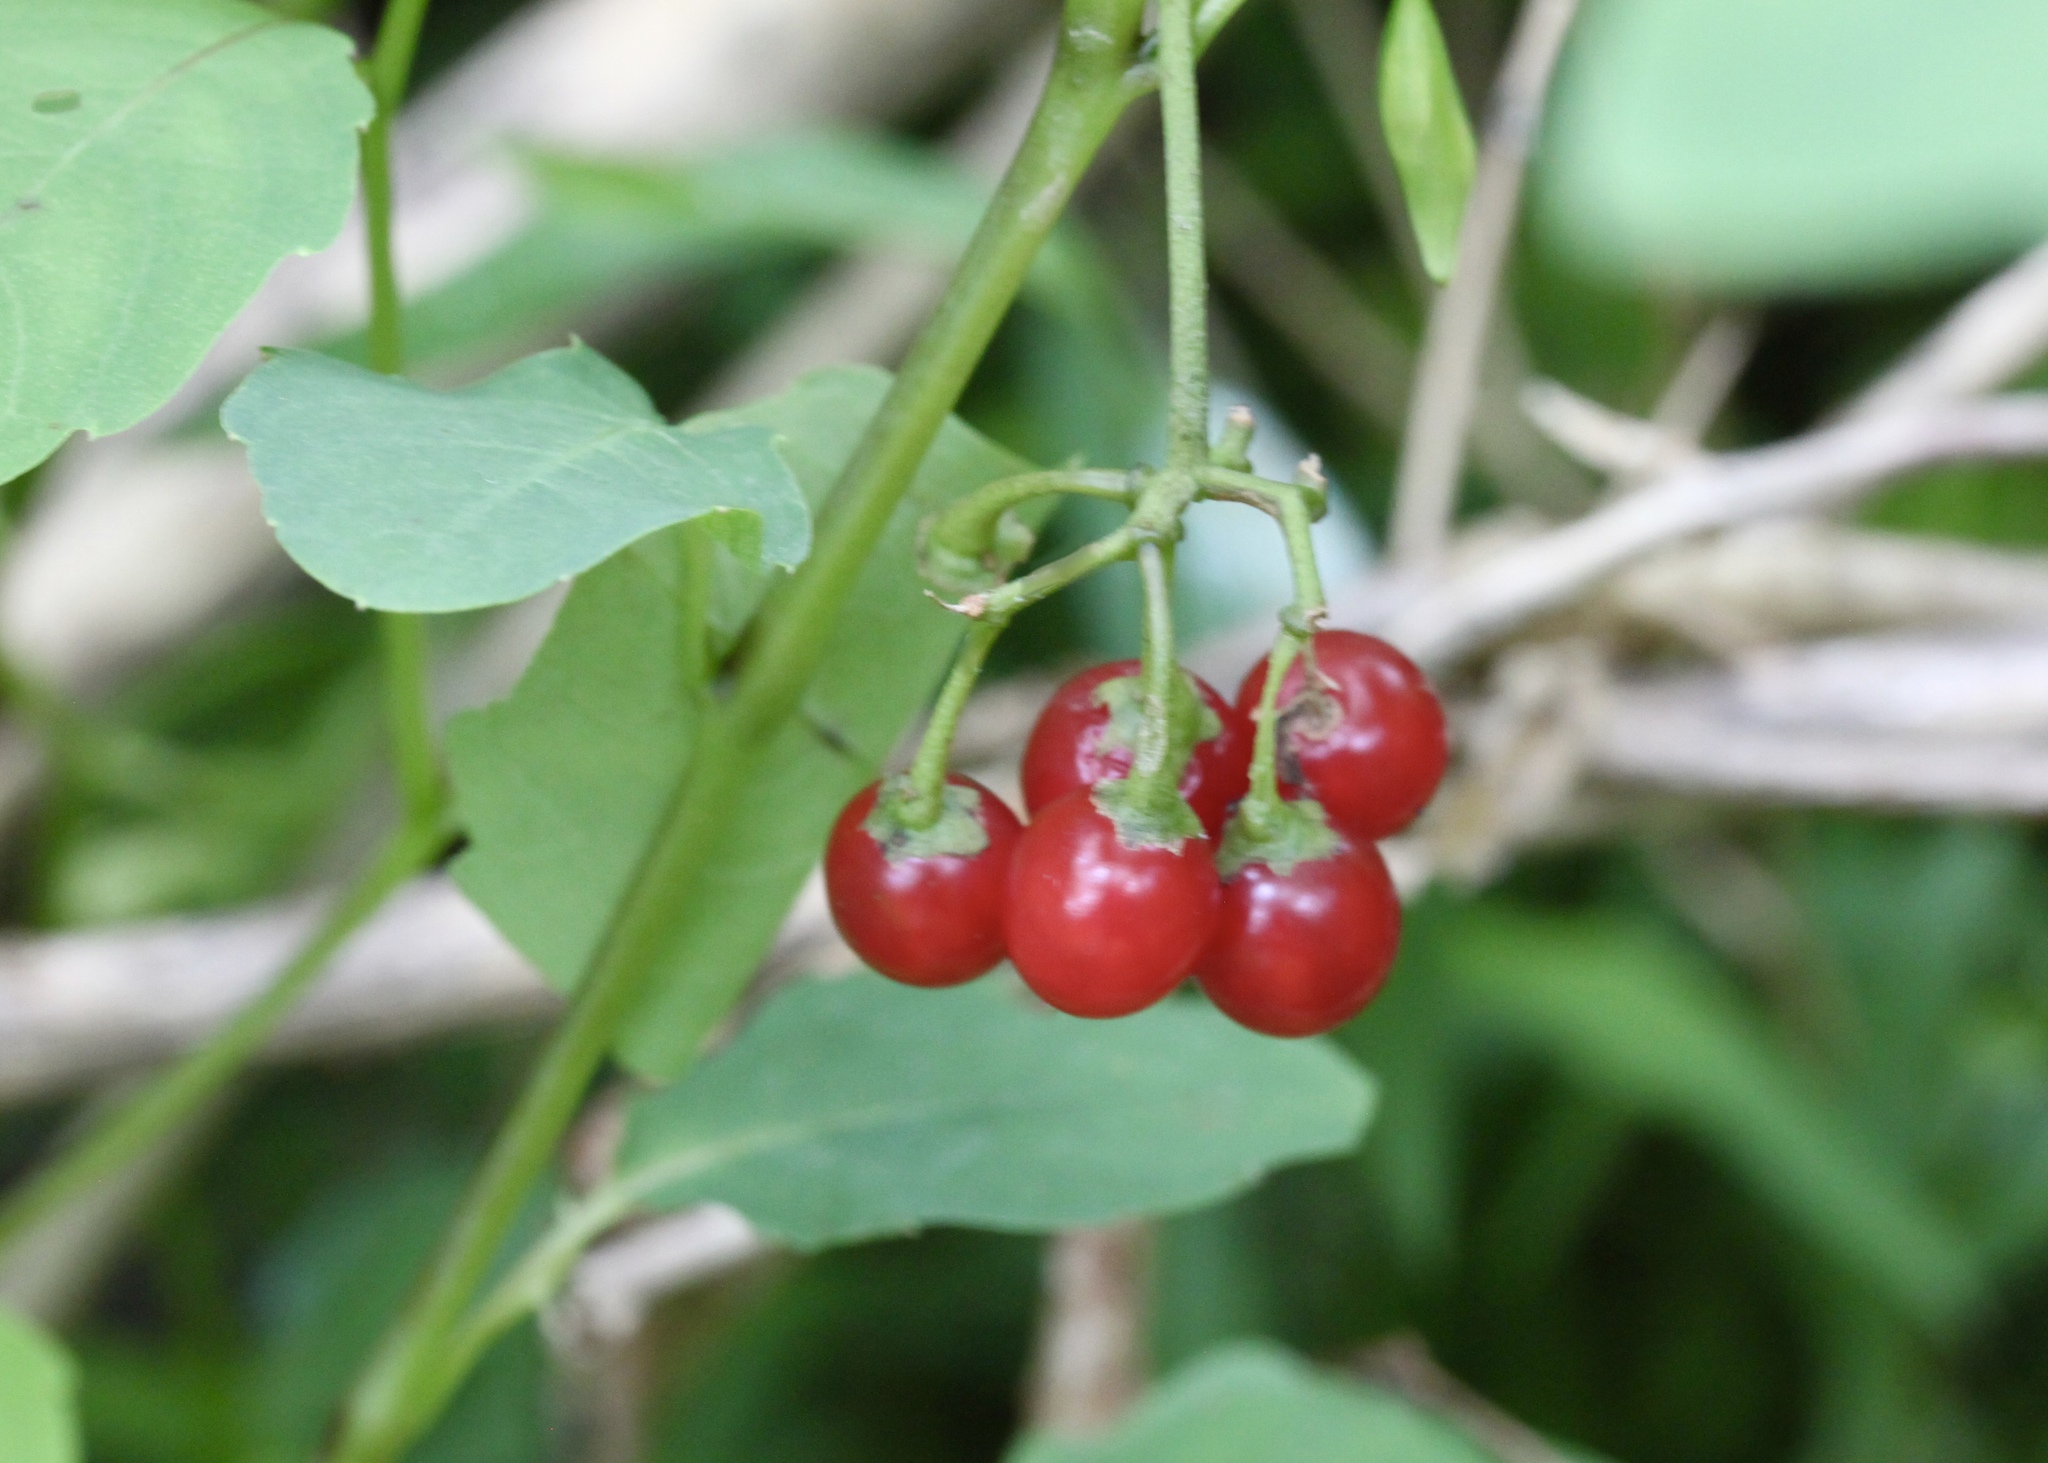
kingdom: Plantae
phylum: Tracheophyta
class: Magnoliopsida
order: Solanales
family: Solanaceae
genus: Solanum
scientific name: Solanum dulcamara
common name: Climbing nightshade
